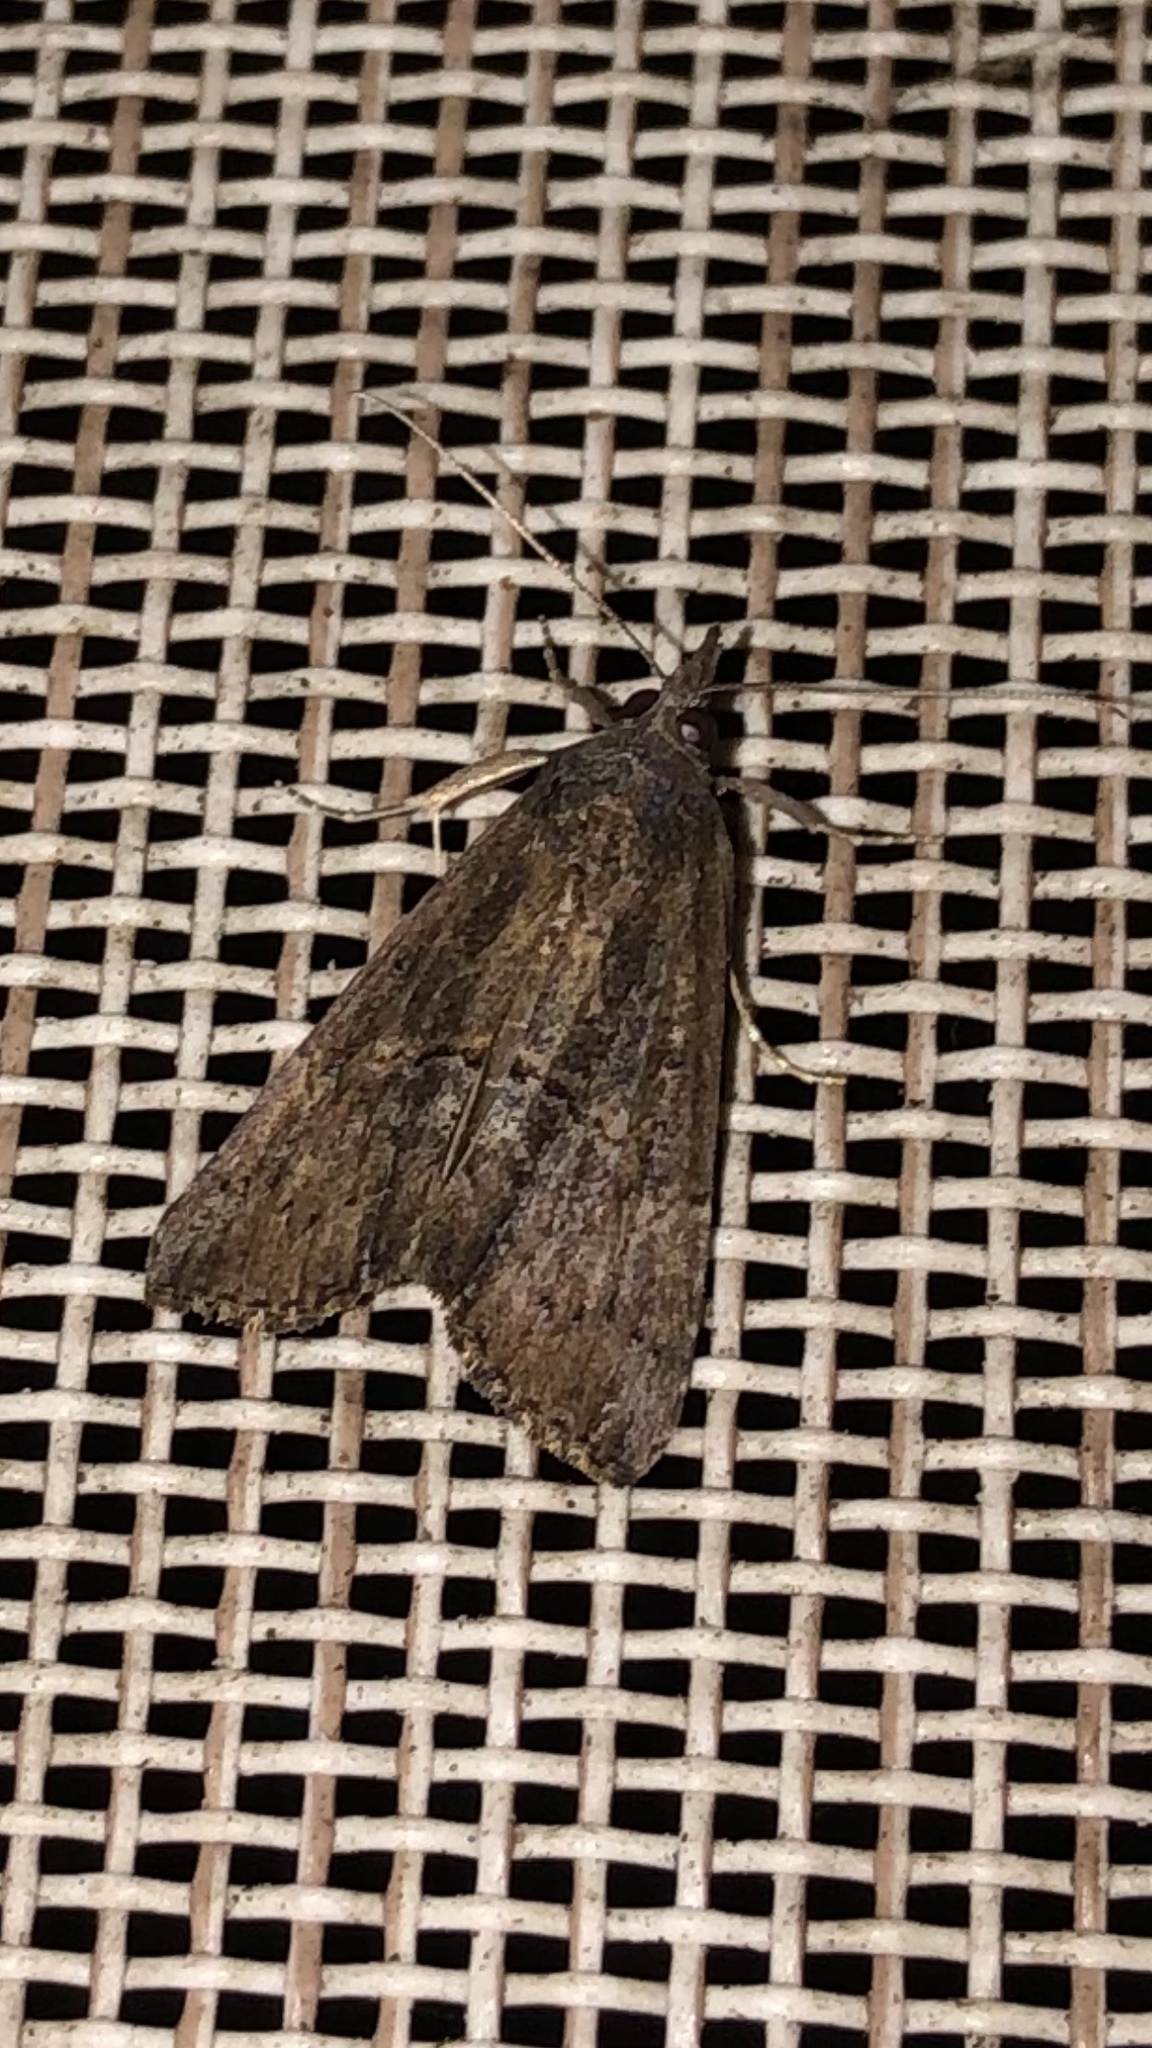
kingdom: Animalia
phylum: Arthropoda
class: Insecta
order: Lepidoptera
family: Erebidae
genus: Hypena
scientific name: Hypena scabra
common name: Green cloverworm
